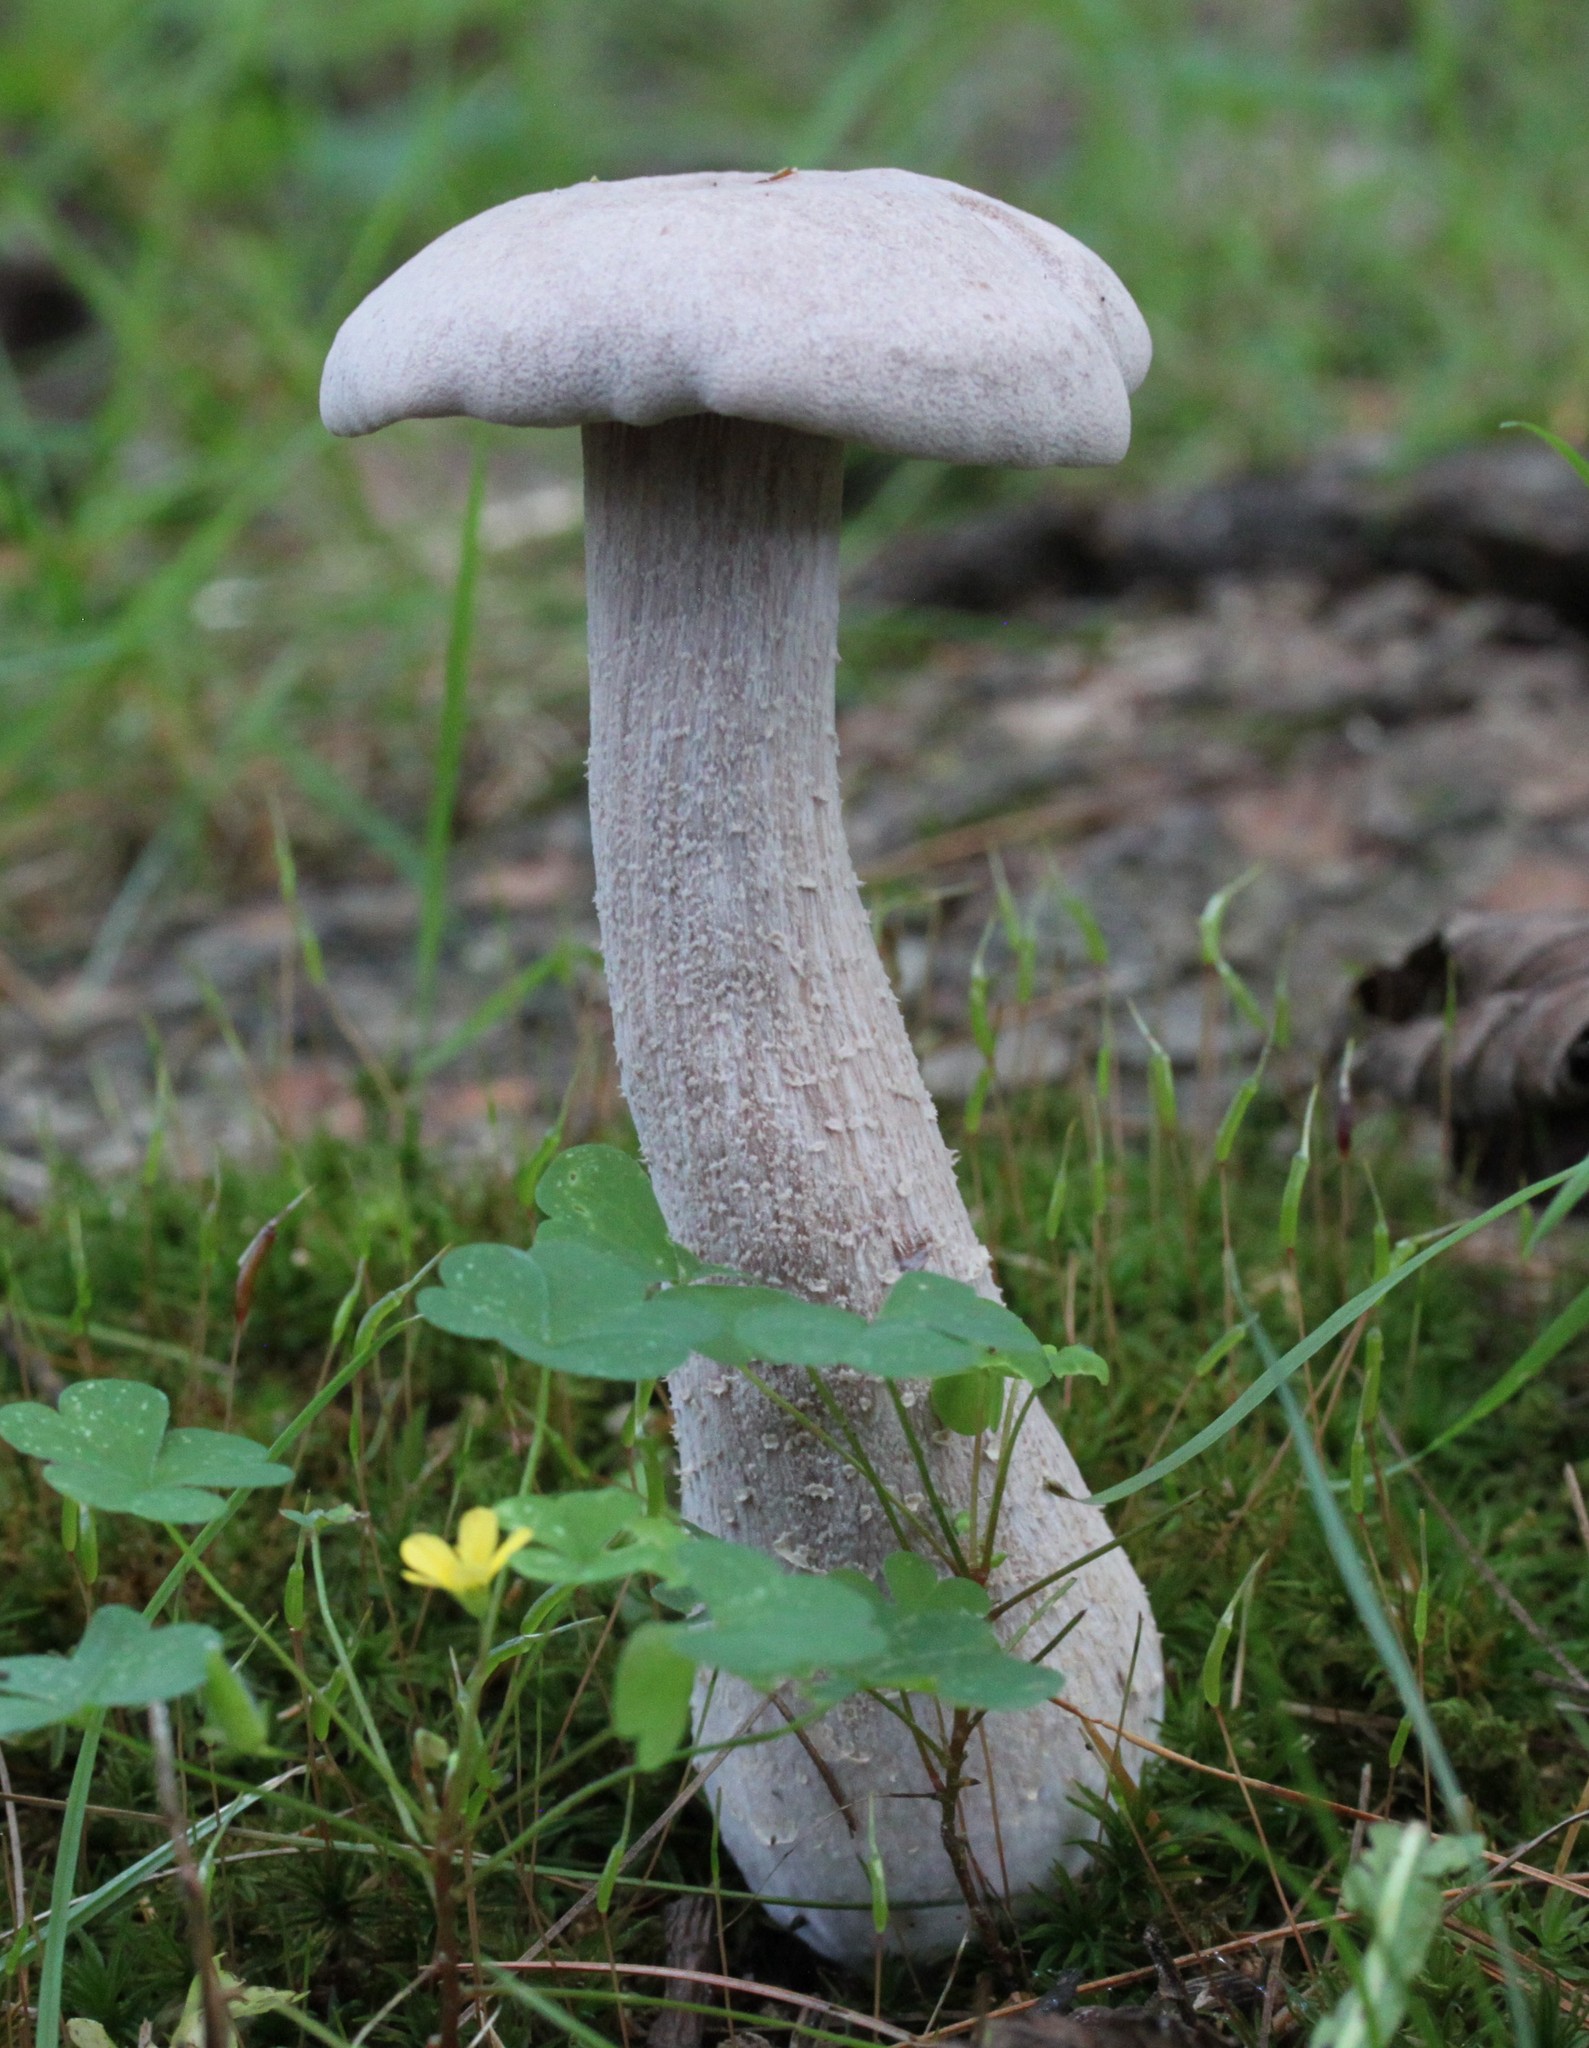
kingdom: Fungi
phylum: Basidiomycota
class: Agaricomycetes
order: Agaricales
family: Hydnangiaceae
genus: Laccaria
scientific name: Laccaria ochropurpurea
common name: Purple laccaria
